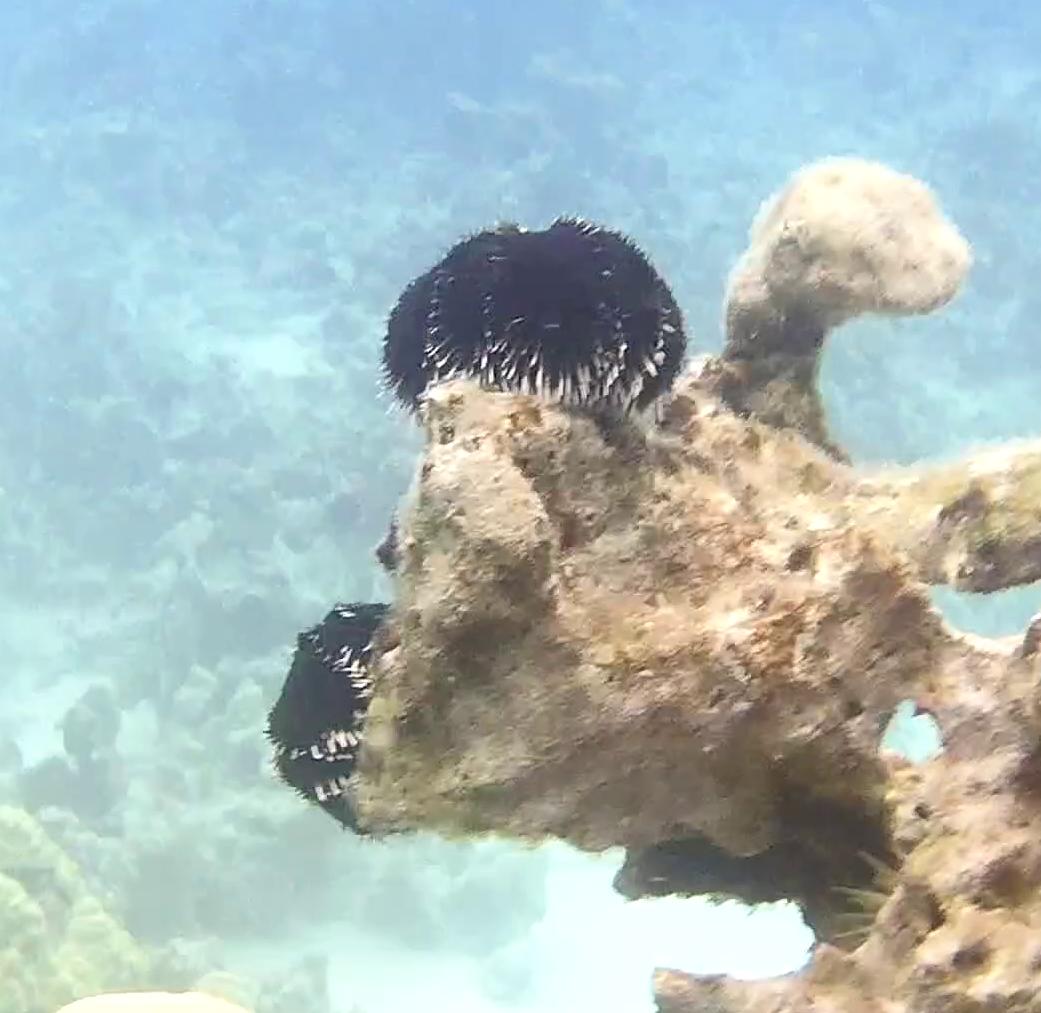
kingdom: Animalia
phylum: Echinodermata
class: Echinoidea
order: Camarodonta
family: Toxopneustidae
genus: Tripneustes
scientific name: Tripneustes gratilla
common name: Bischofsmützenseeigel
